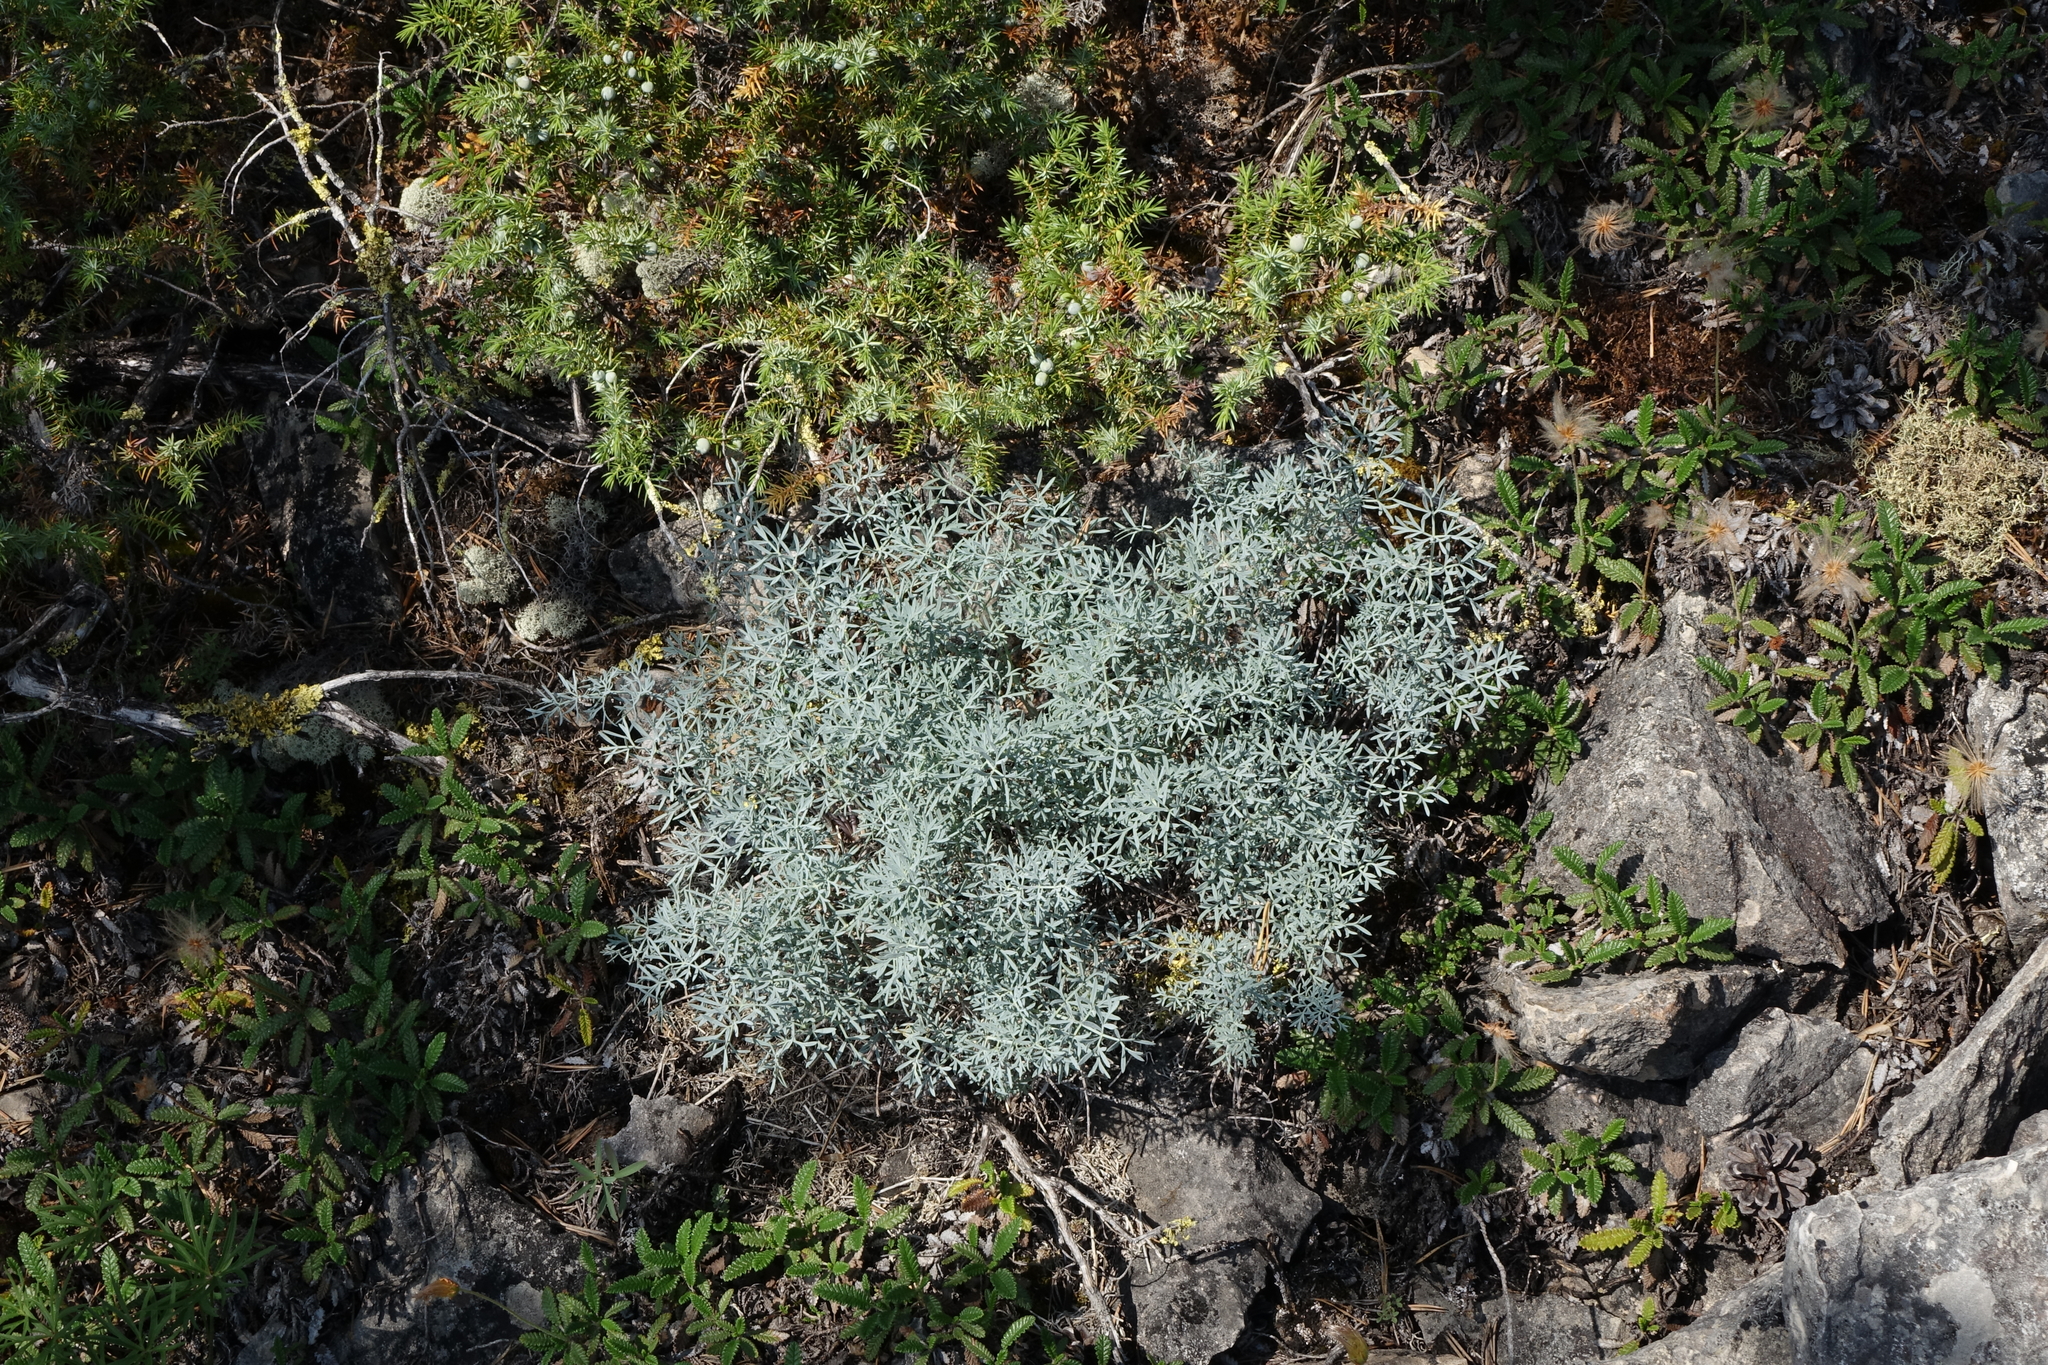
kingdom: Plantae
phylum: Tracheophyta
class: Magnoliopsida
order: Apiales
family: Apiaceae
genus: Phlojodicarpus
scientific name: Phlojodicarpus sibiricus
